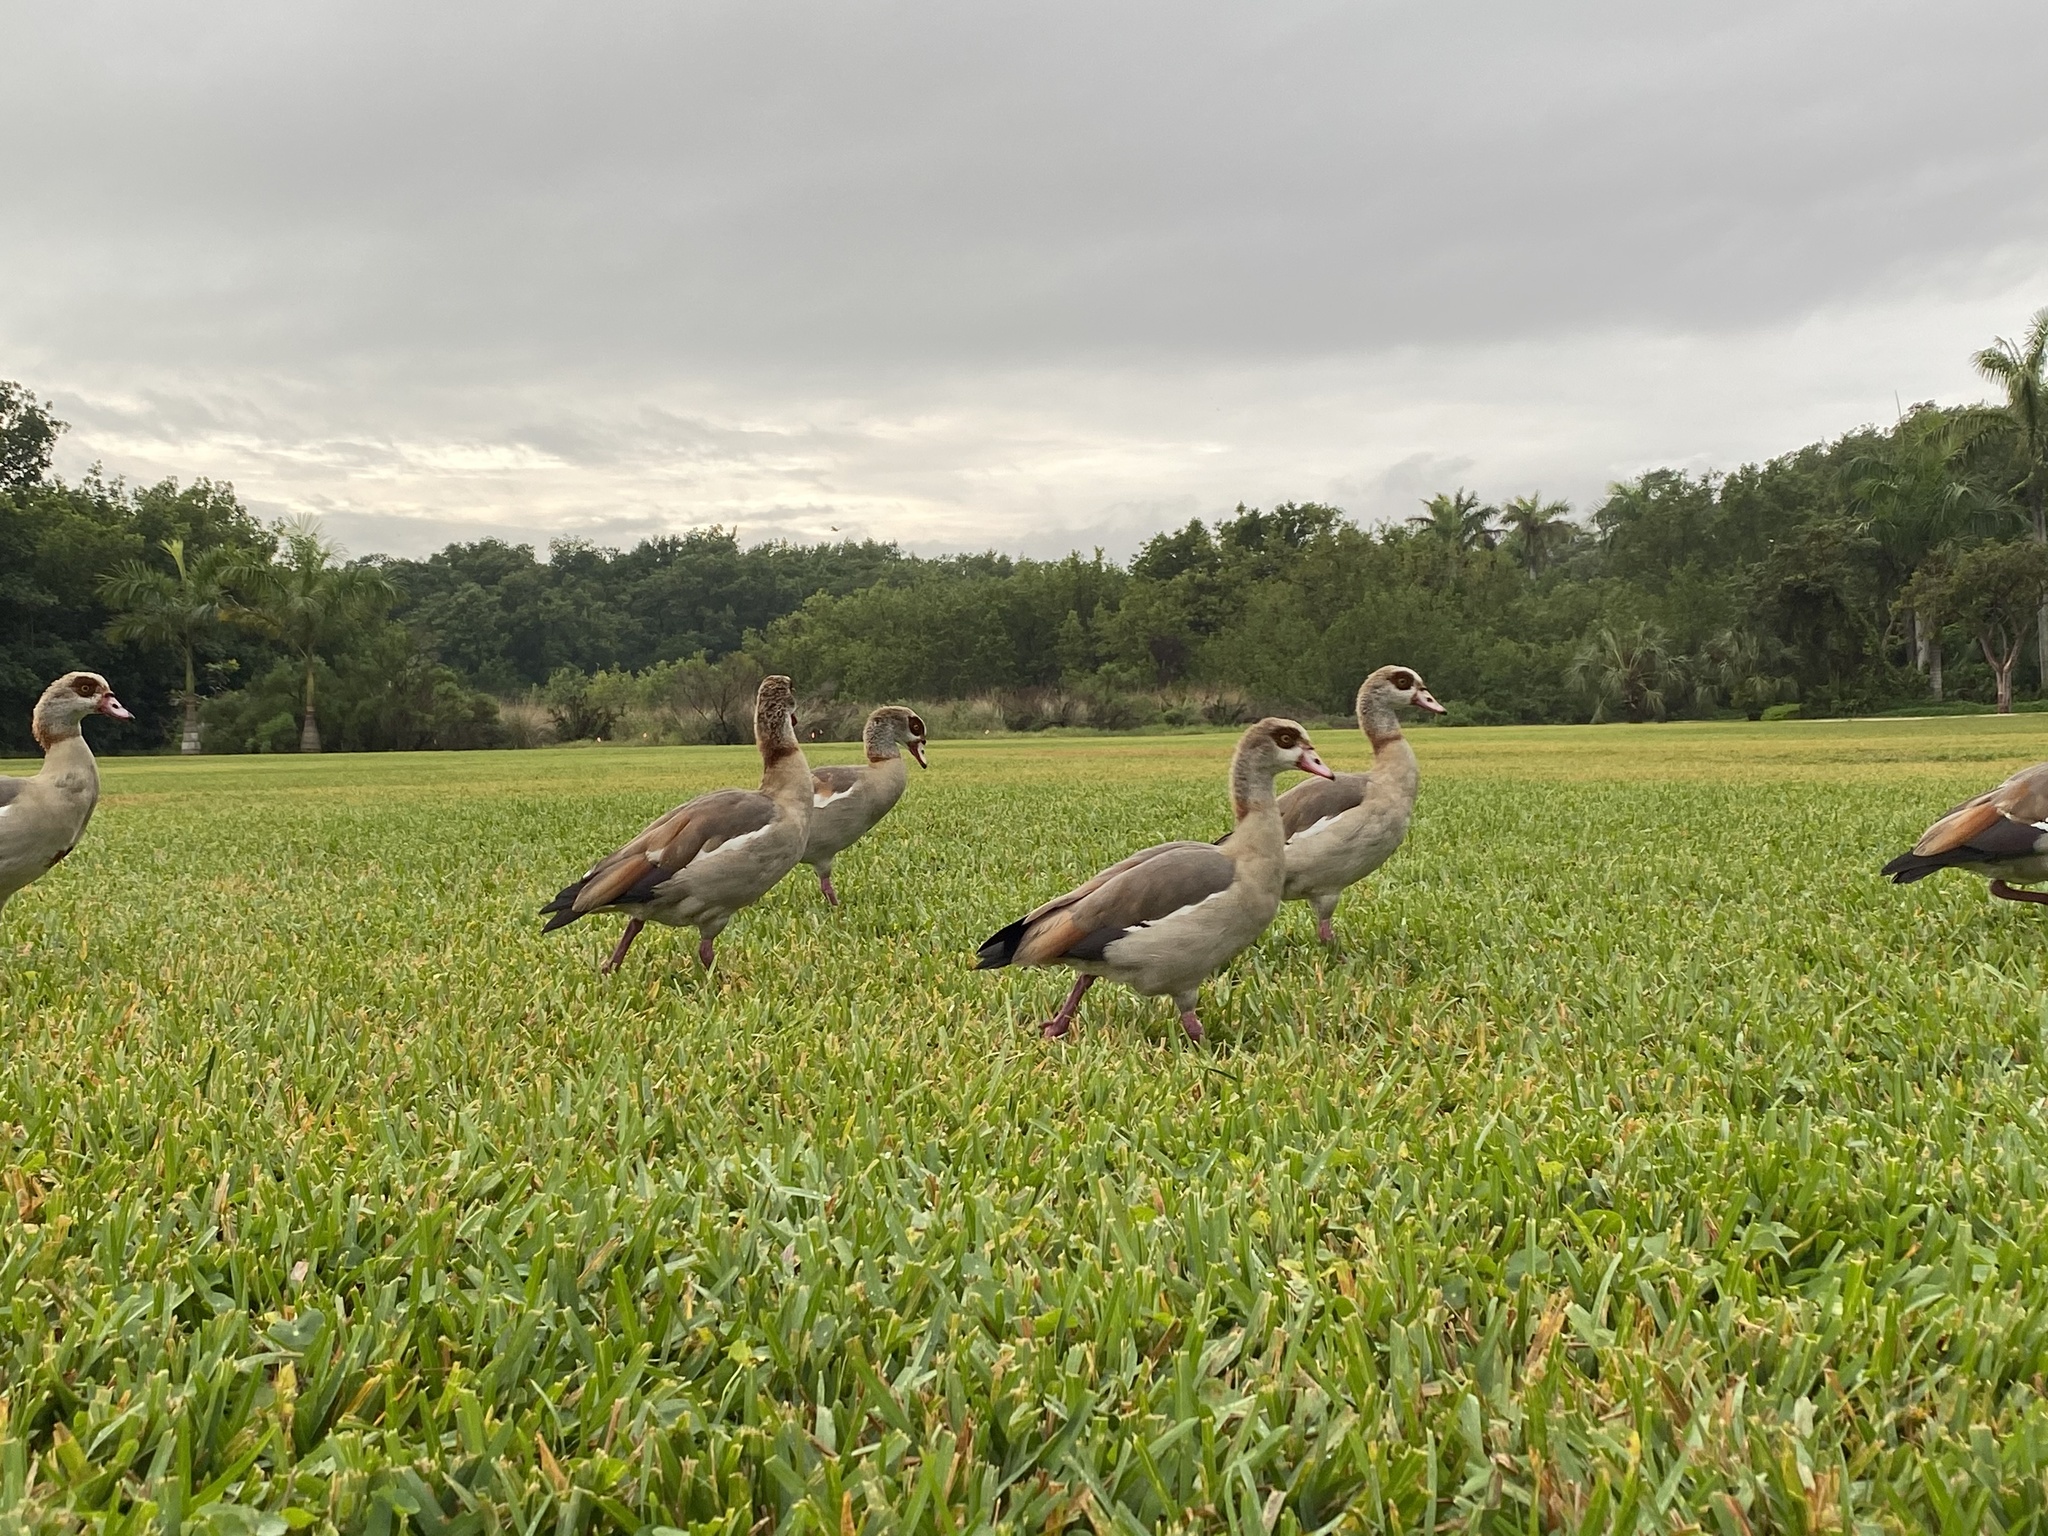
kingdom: Animalia
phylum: Chordata
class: Aves
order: Anseriformes
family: Anatidae
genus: Alopochen
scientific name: Alopochen aegyptiaca
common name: Egyptian goose
